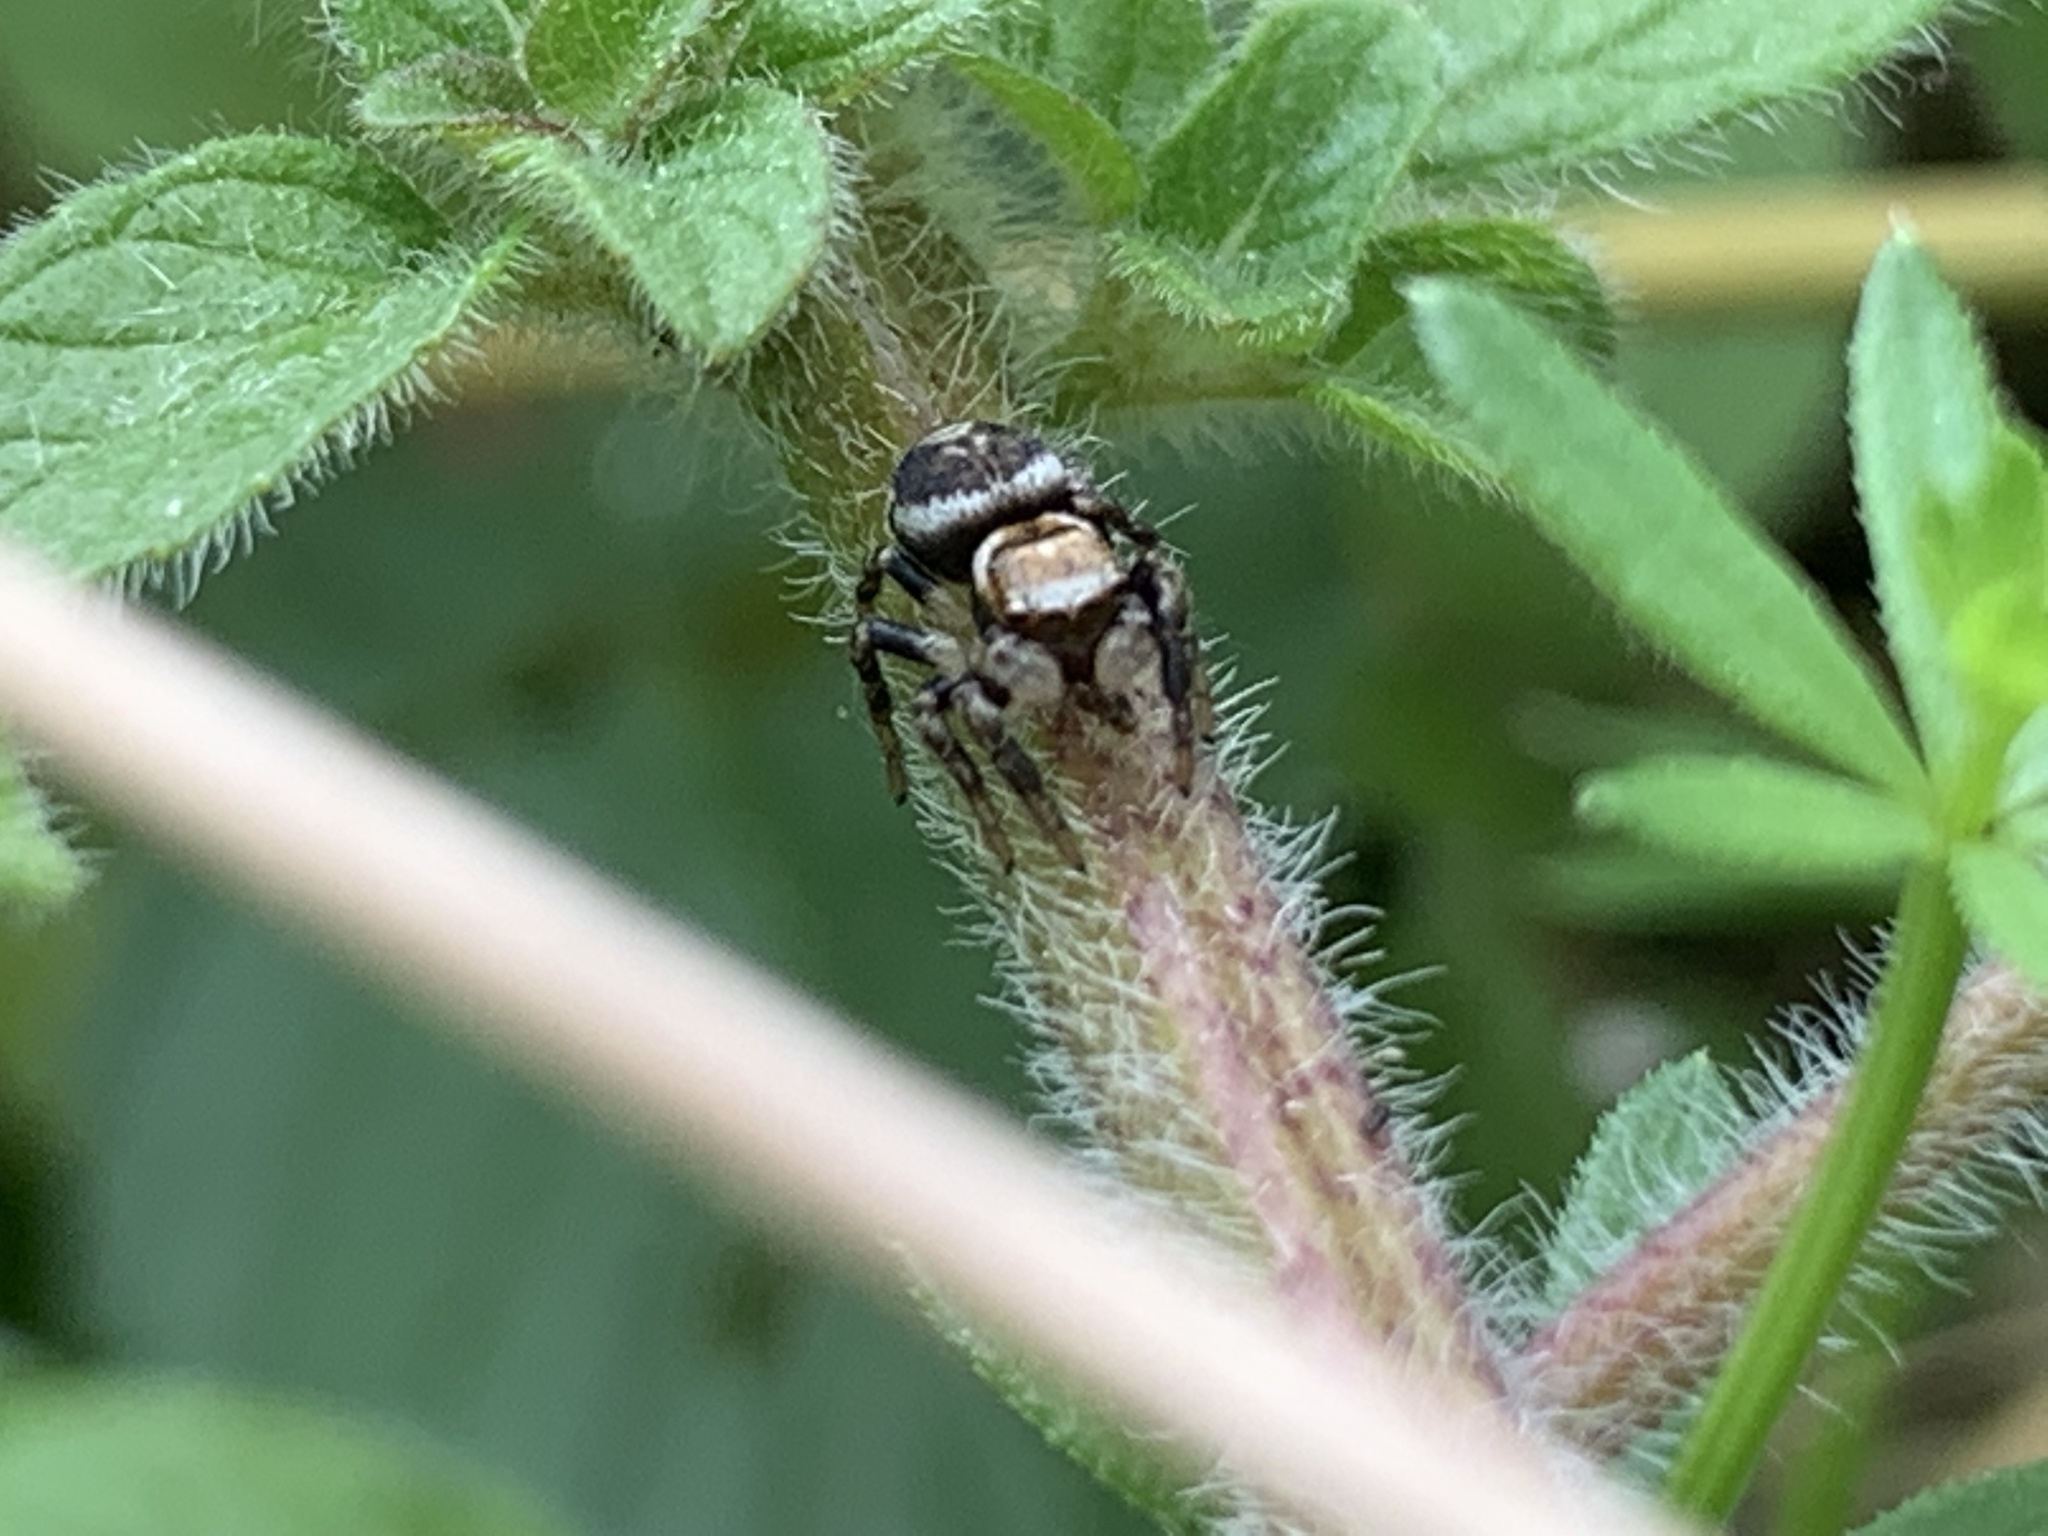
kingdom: Animalia
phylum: Arthropoda
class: Arachnida
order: Araneae
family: Salticidae
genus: Evarcha
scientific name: Evarcha hoyi
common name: Hoy's jumping spider
